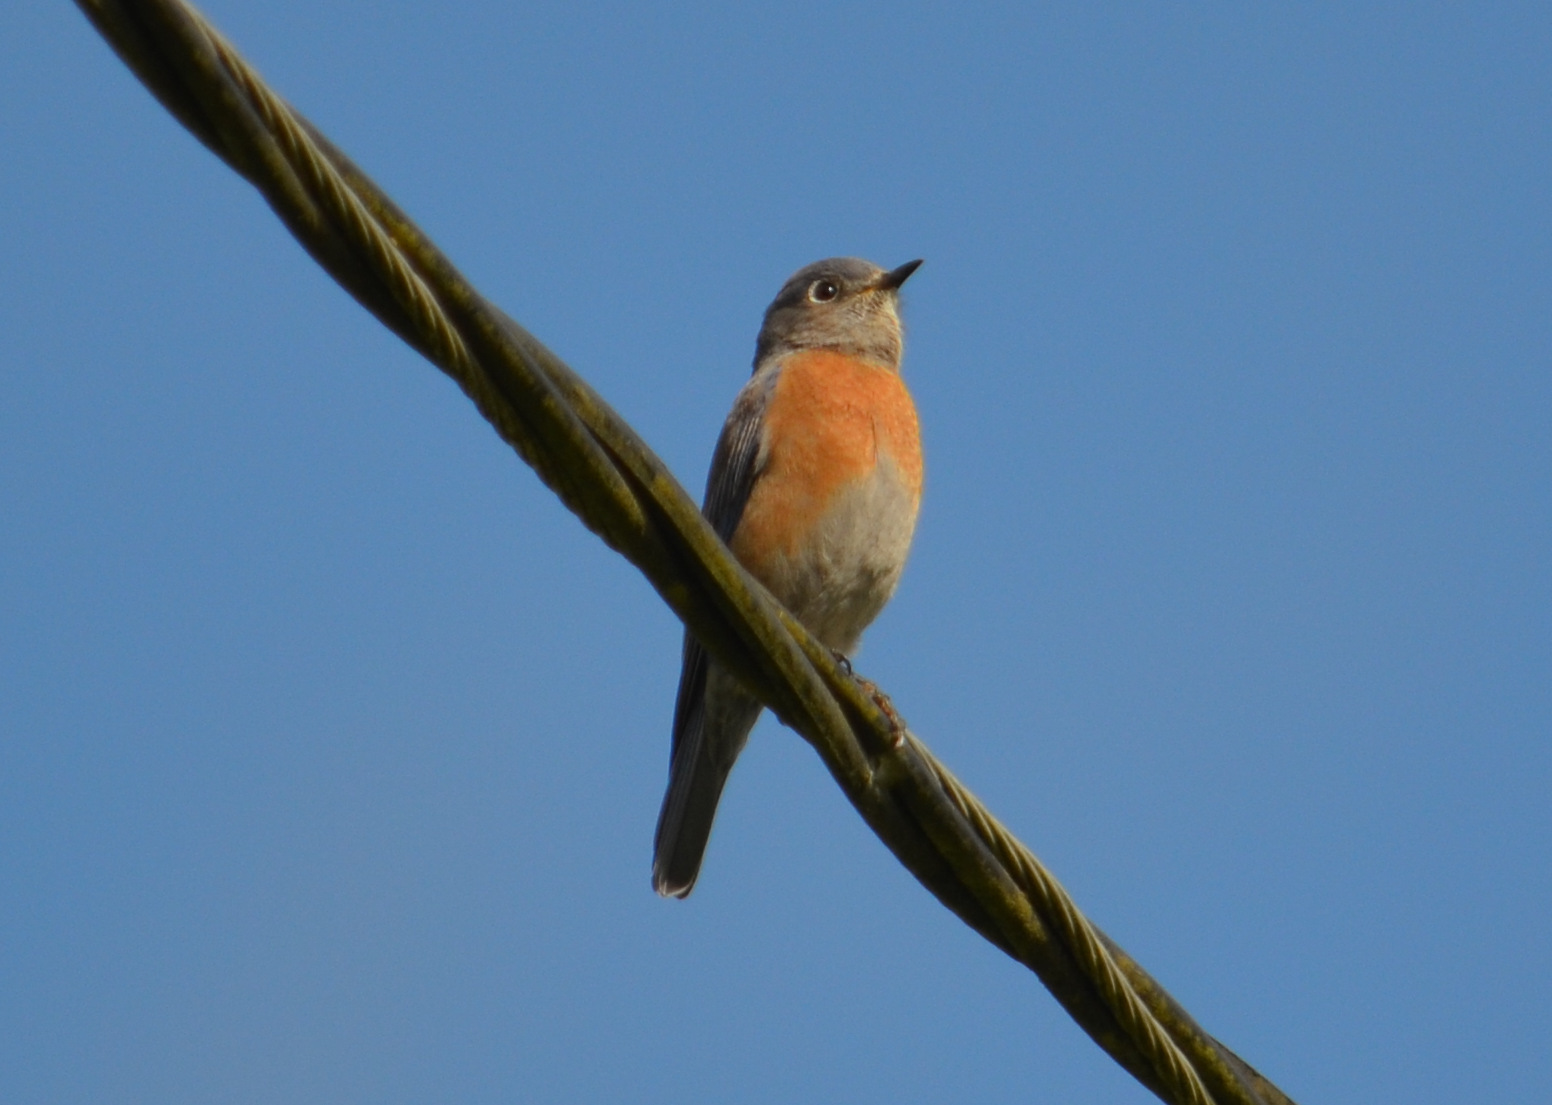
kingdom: Animalia
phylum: Chordata
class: Aves
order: Passeriformes
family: Turdidae
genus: Sialia
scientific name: Sialia mexicana
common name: Western bluebird
